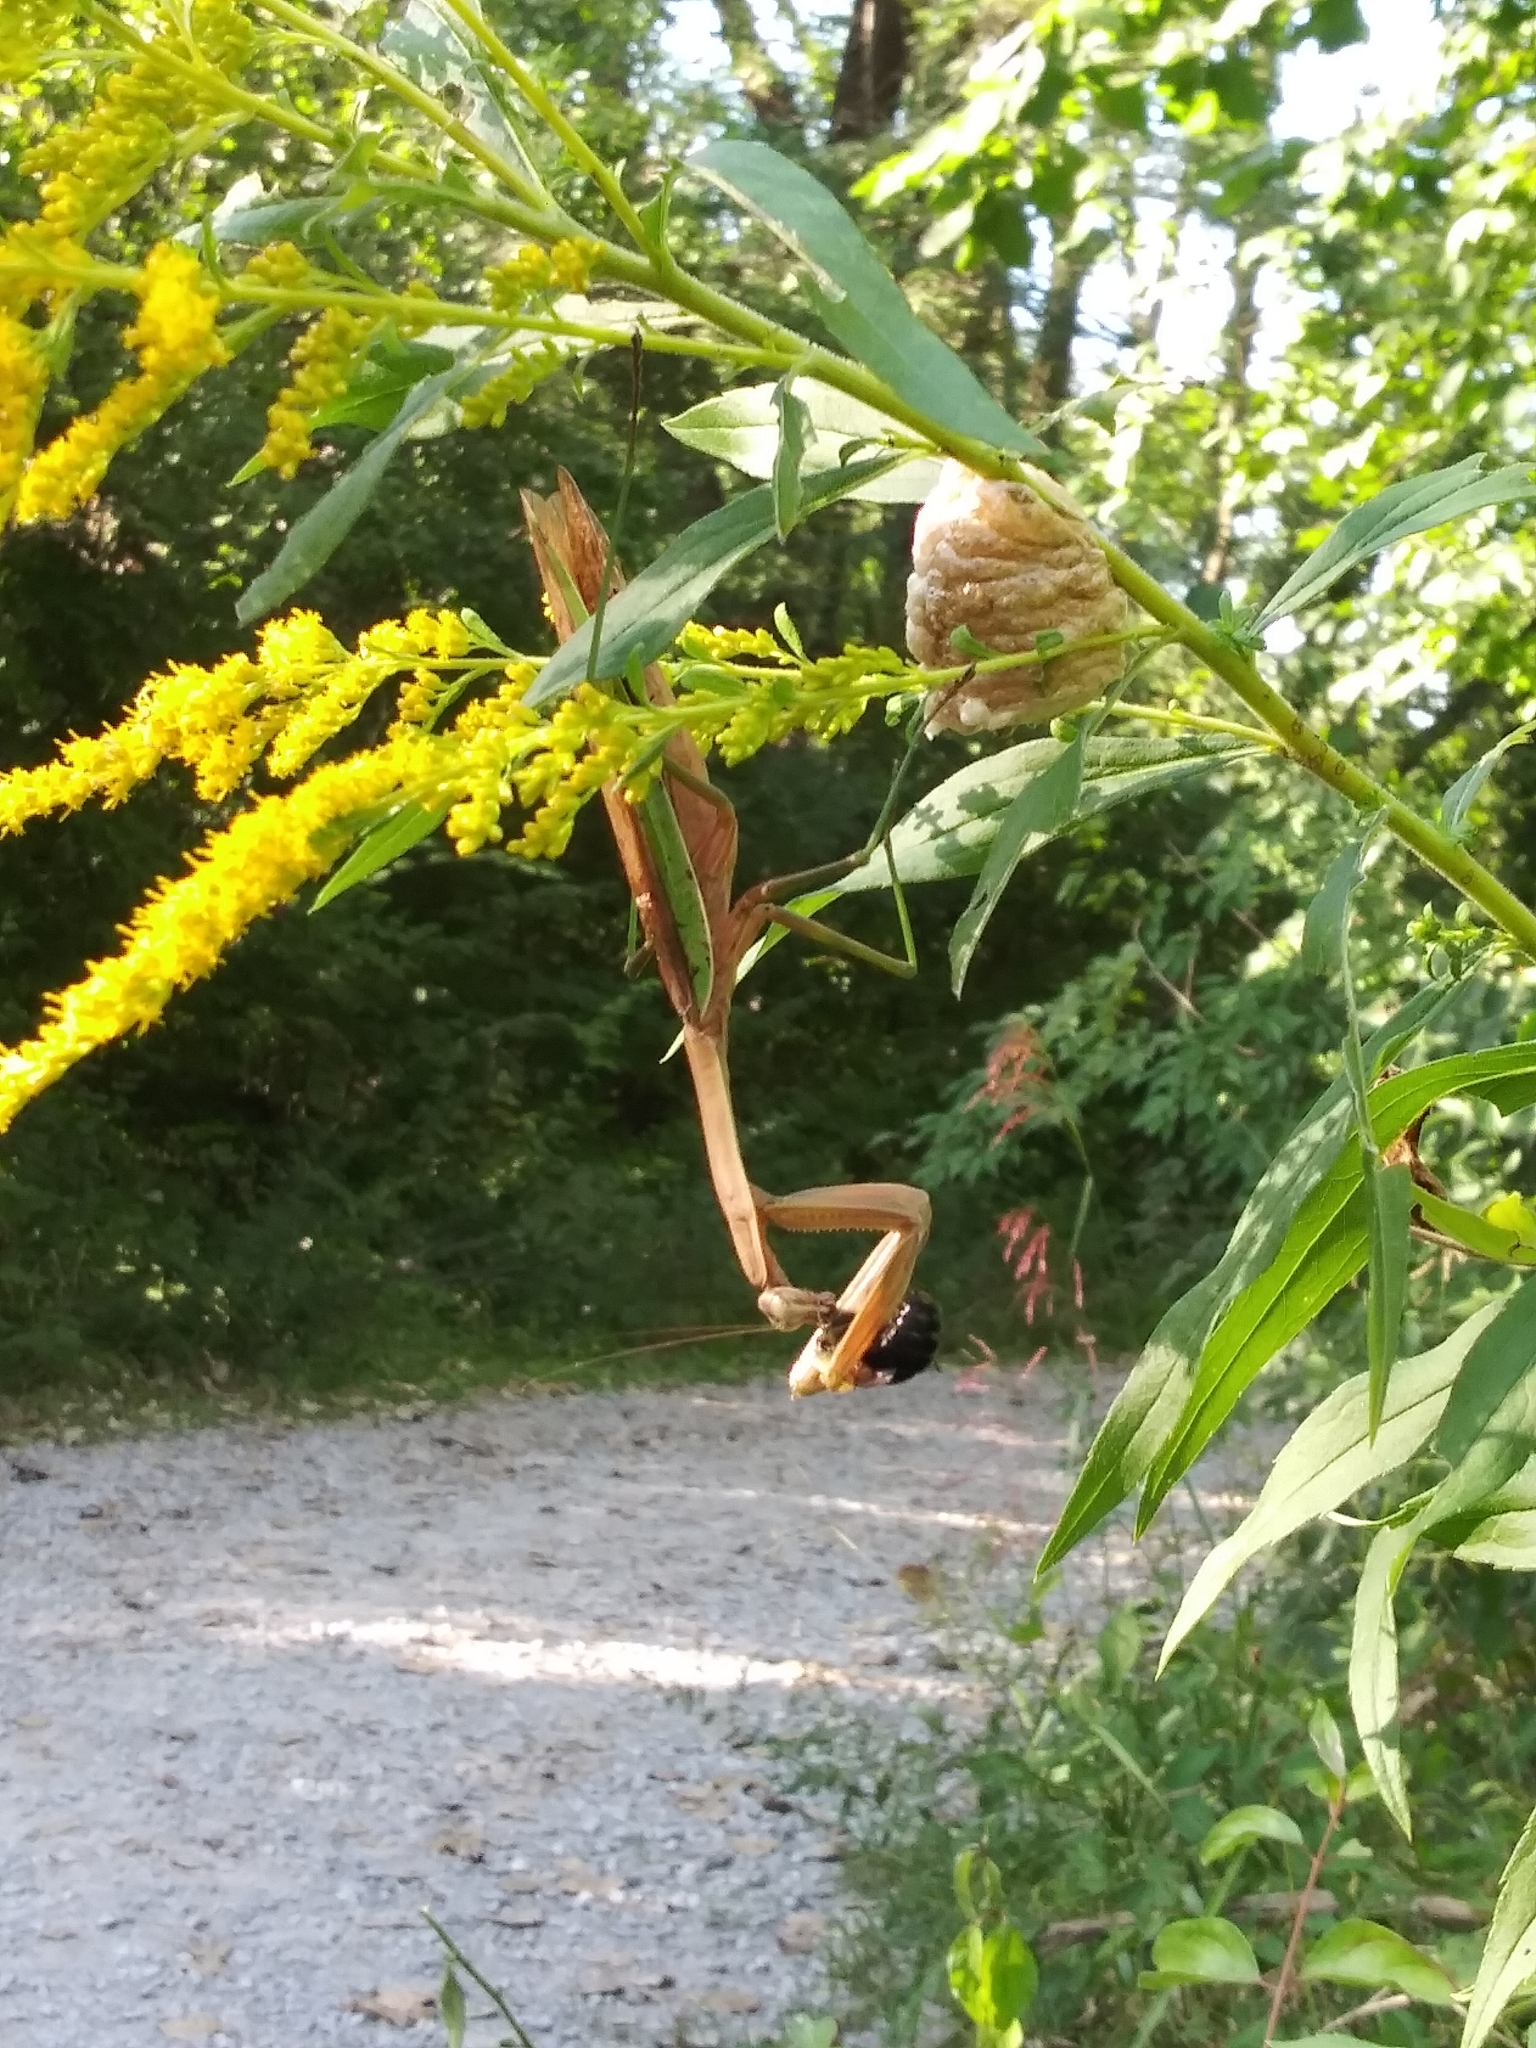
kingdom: Animalia
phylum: Arthropoda
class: Insecta
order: Mantodea
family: Mantidae
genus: Tenodera
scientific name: Tenodera sinensis
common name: Chinese mantis
